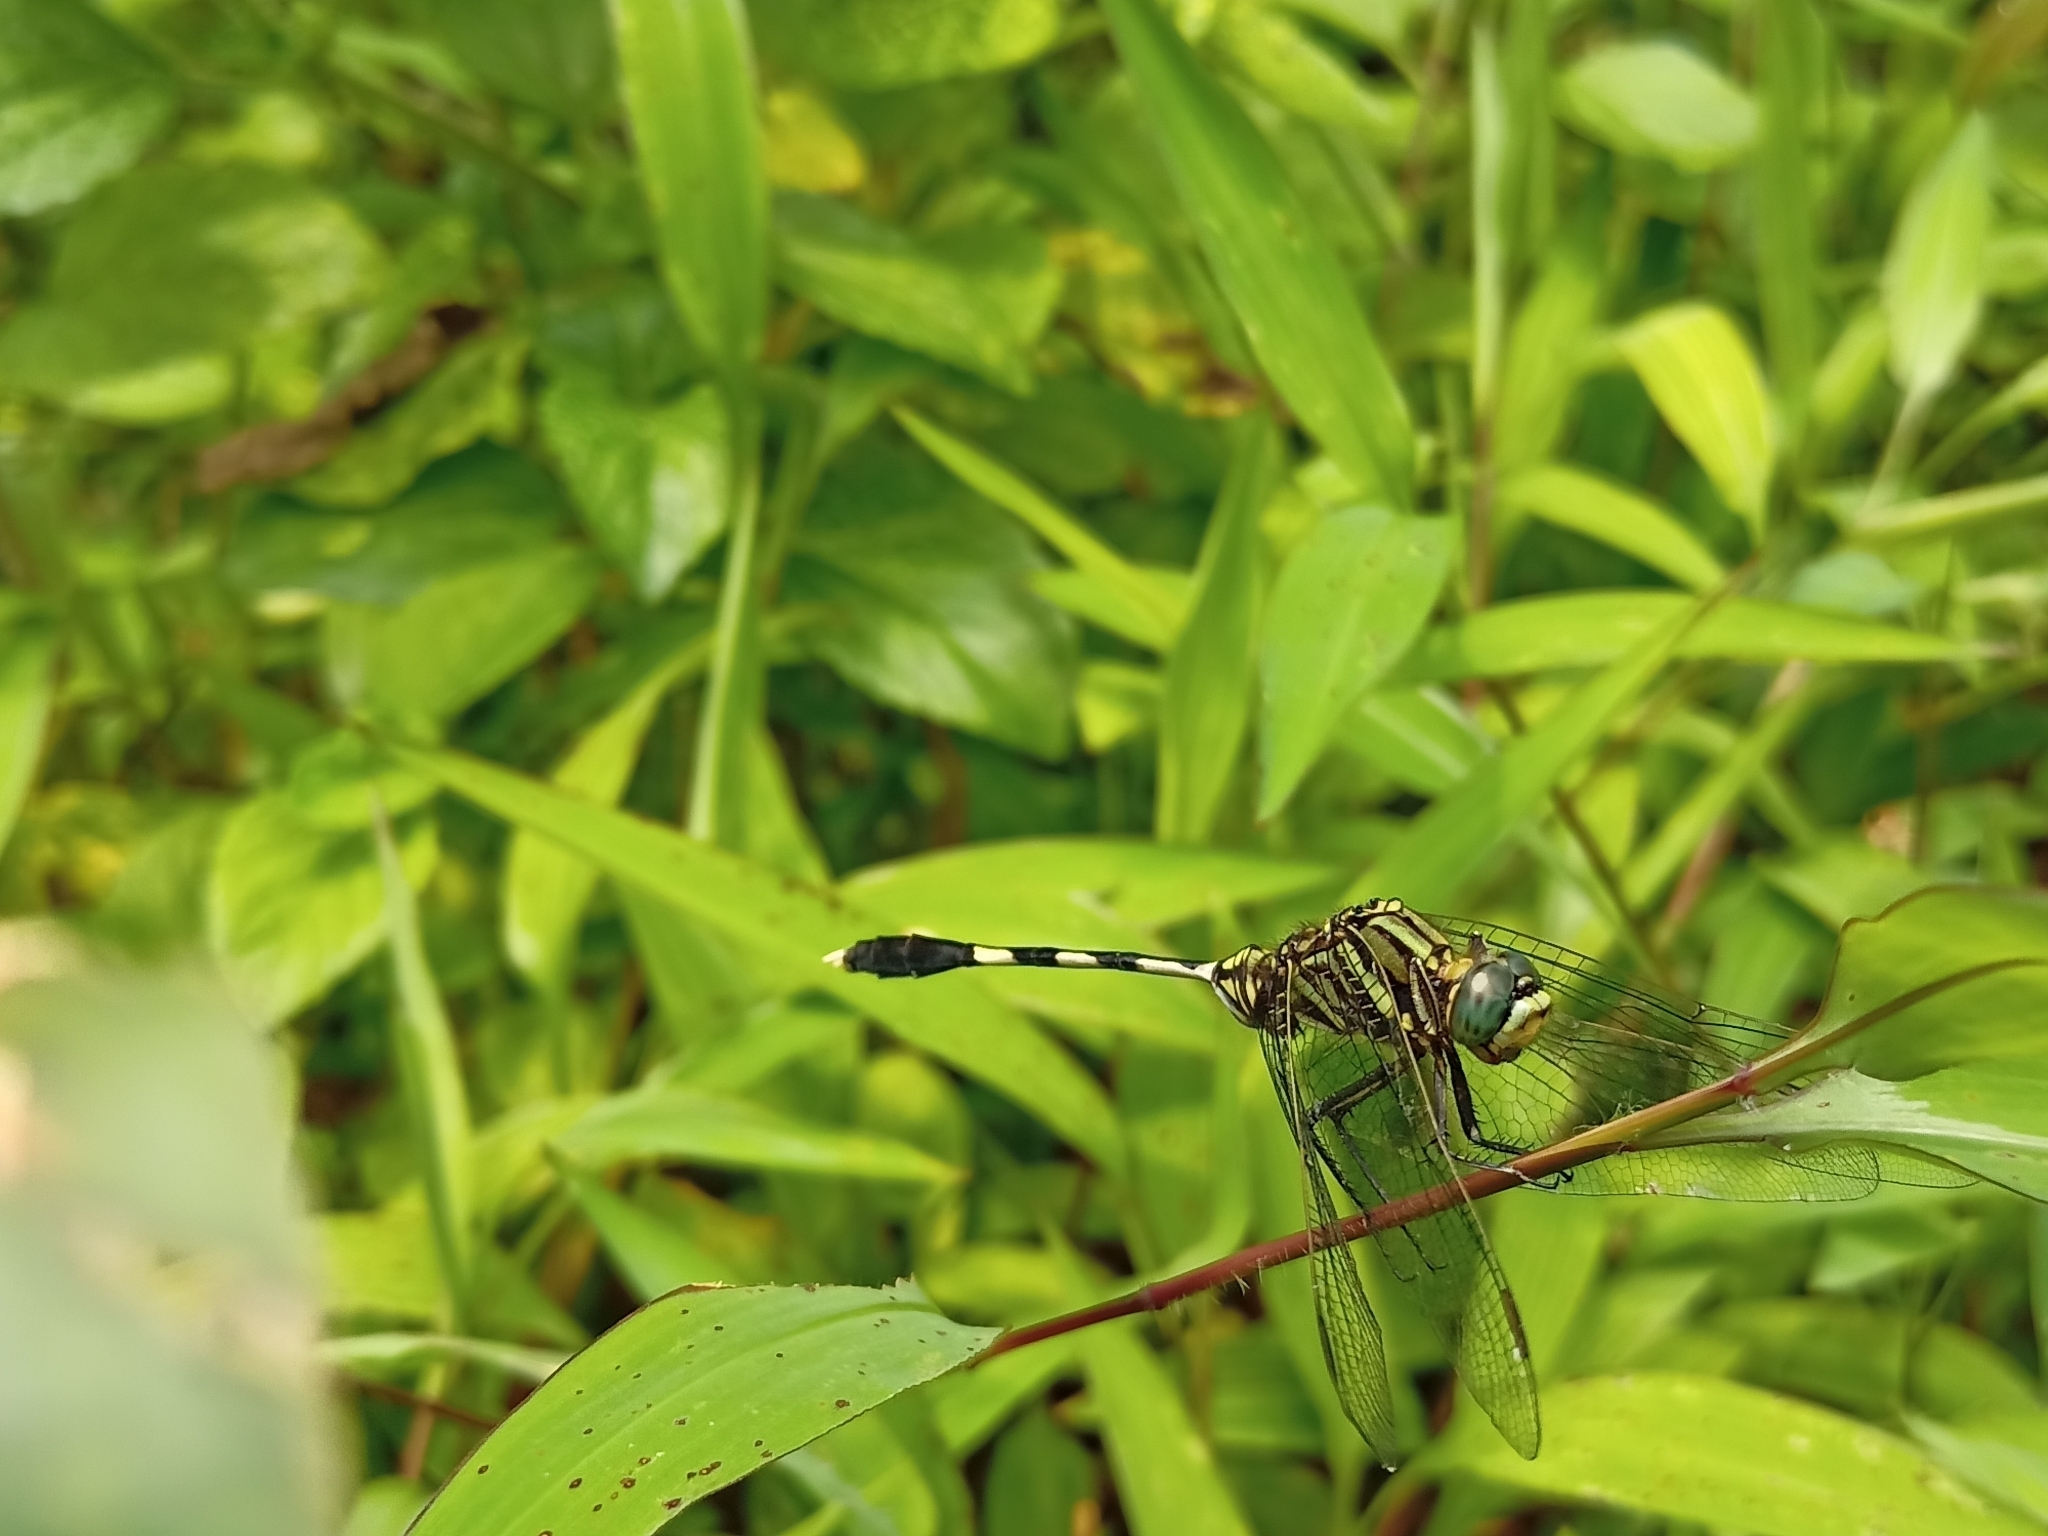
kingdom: Animalia
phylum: Arthropoda
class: Insecta
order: Odonata
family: Libellulidae
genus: Orthetrum
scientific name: Orthetrum sabina
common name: Slender skimmer
